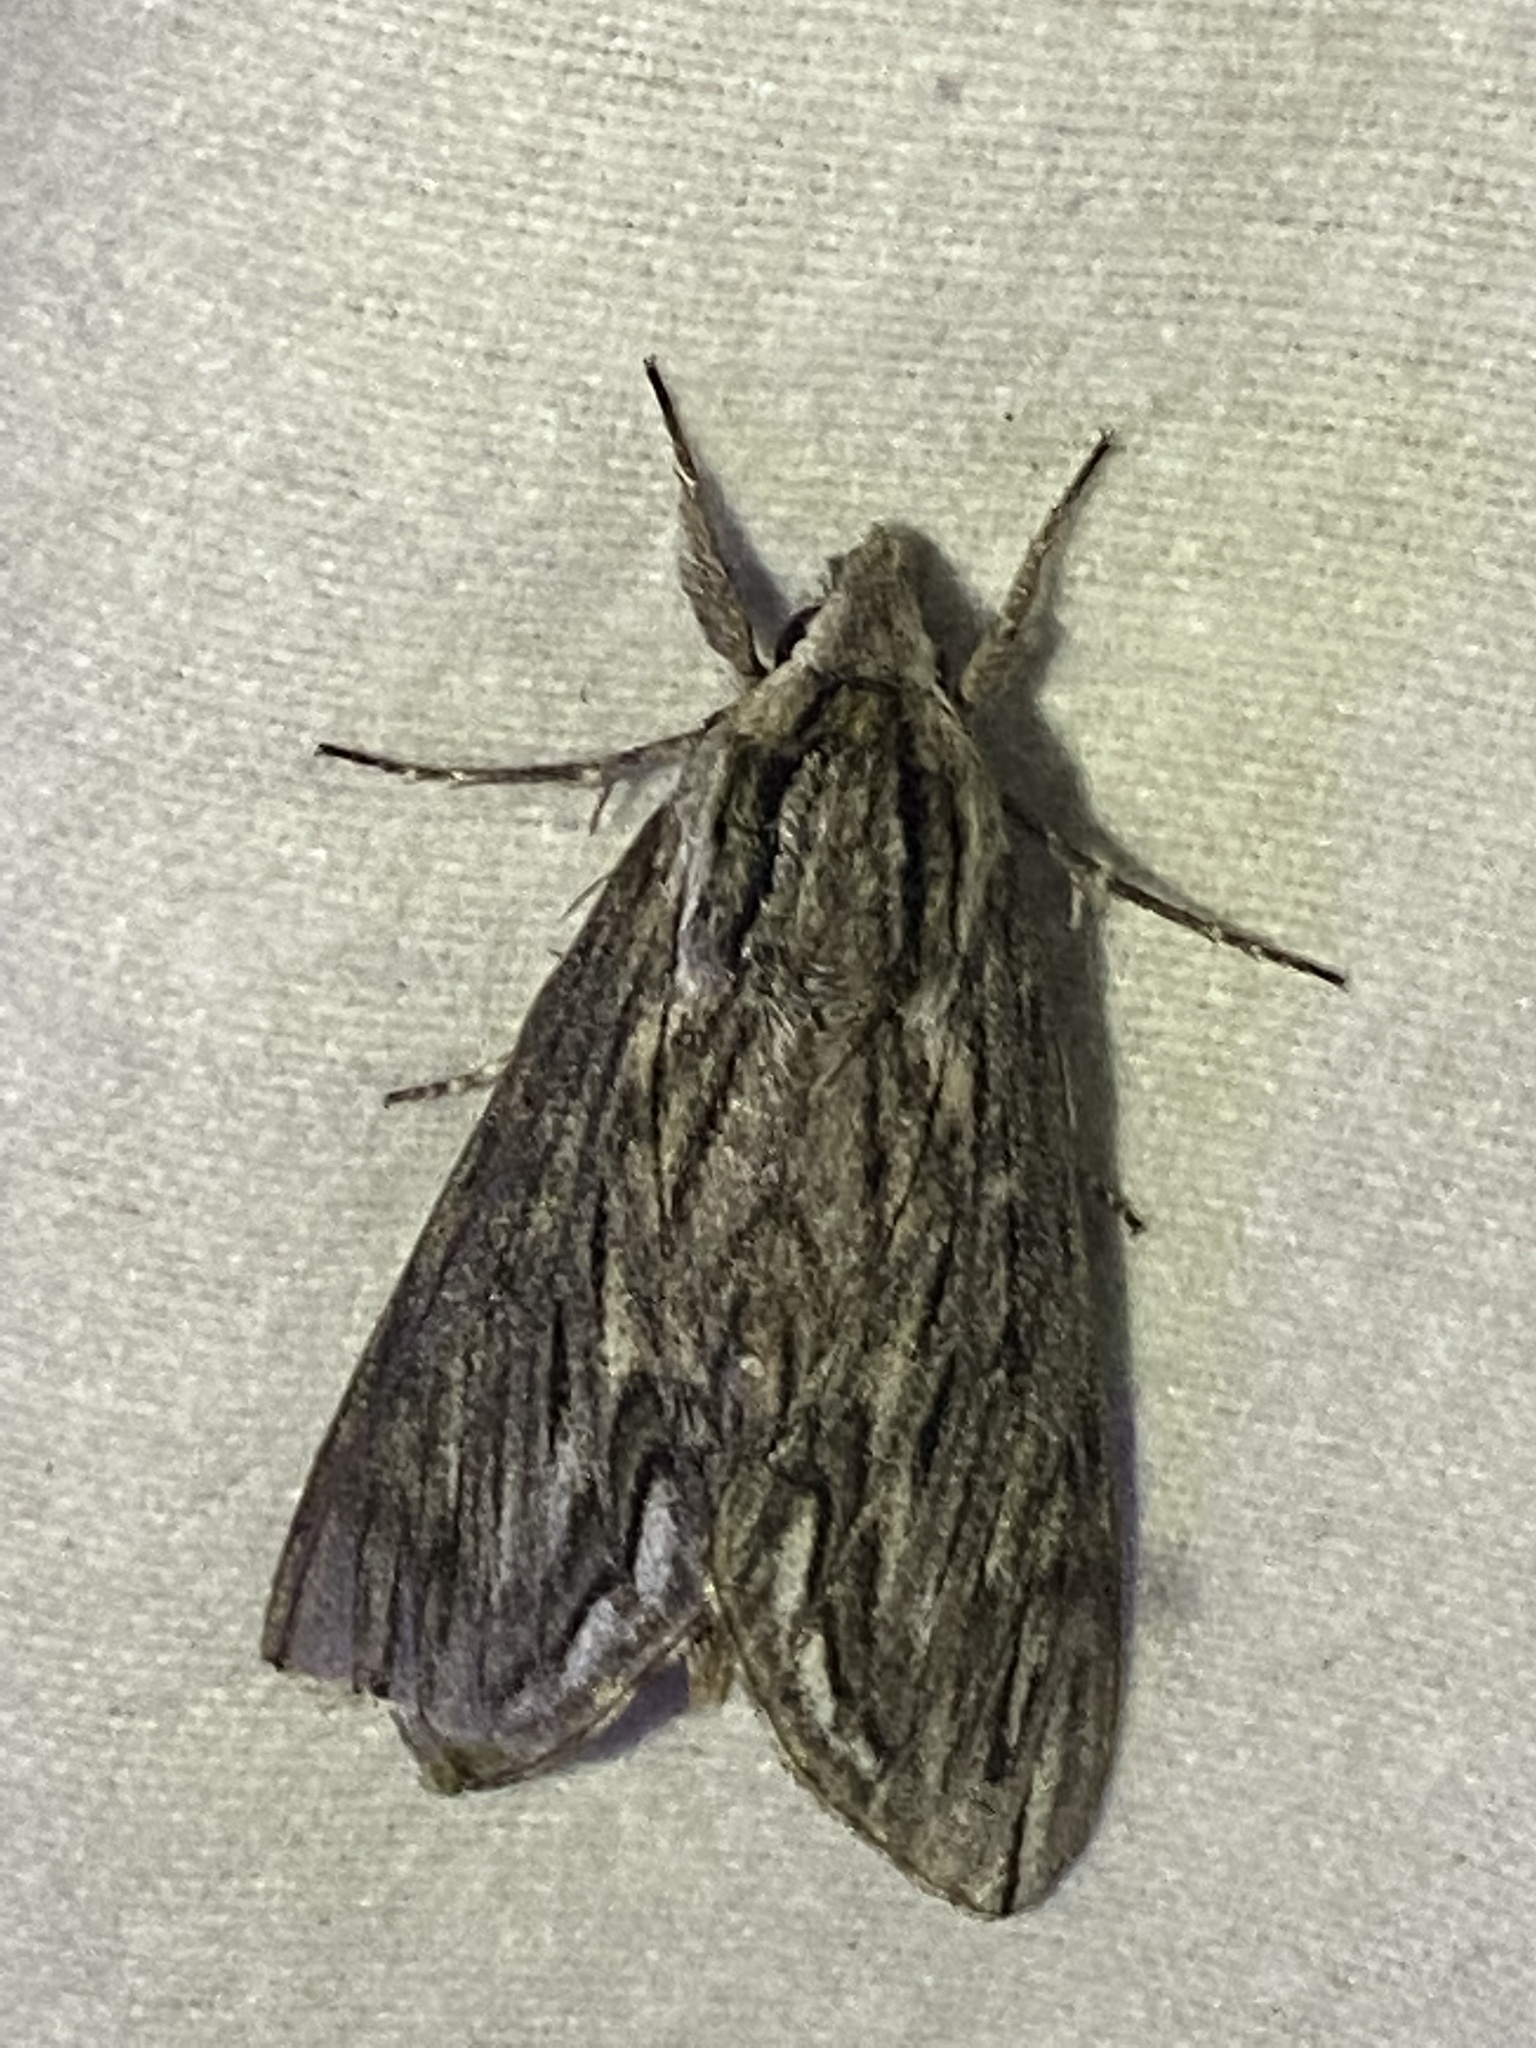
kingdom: Animalia
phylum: Arthropoda
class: Insecta
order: Lepidoptera
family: Sphingidae
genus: Sphinx
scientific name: Sphinx canadensis
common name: Canadian sphinx
